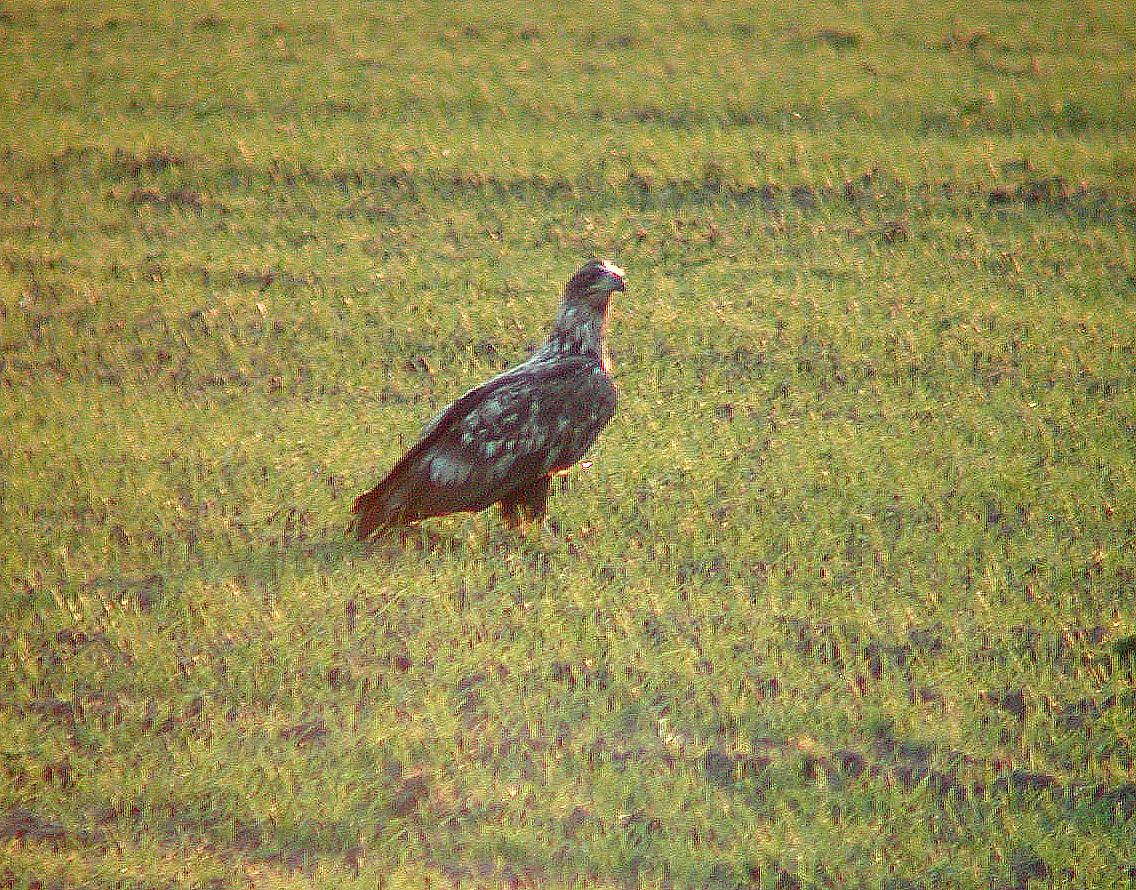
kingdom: Animalia
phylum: Chordata
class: Aves
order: Accipitriformes
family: Accipitridae
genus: Haliaeetus
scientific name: Haliaeetus albicilla
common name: White-tailed eagle
